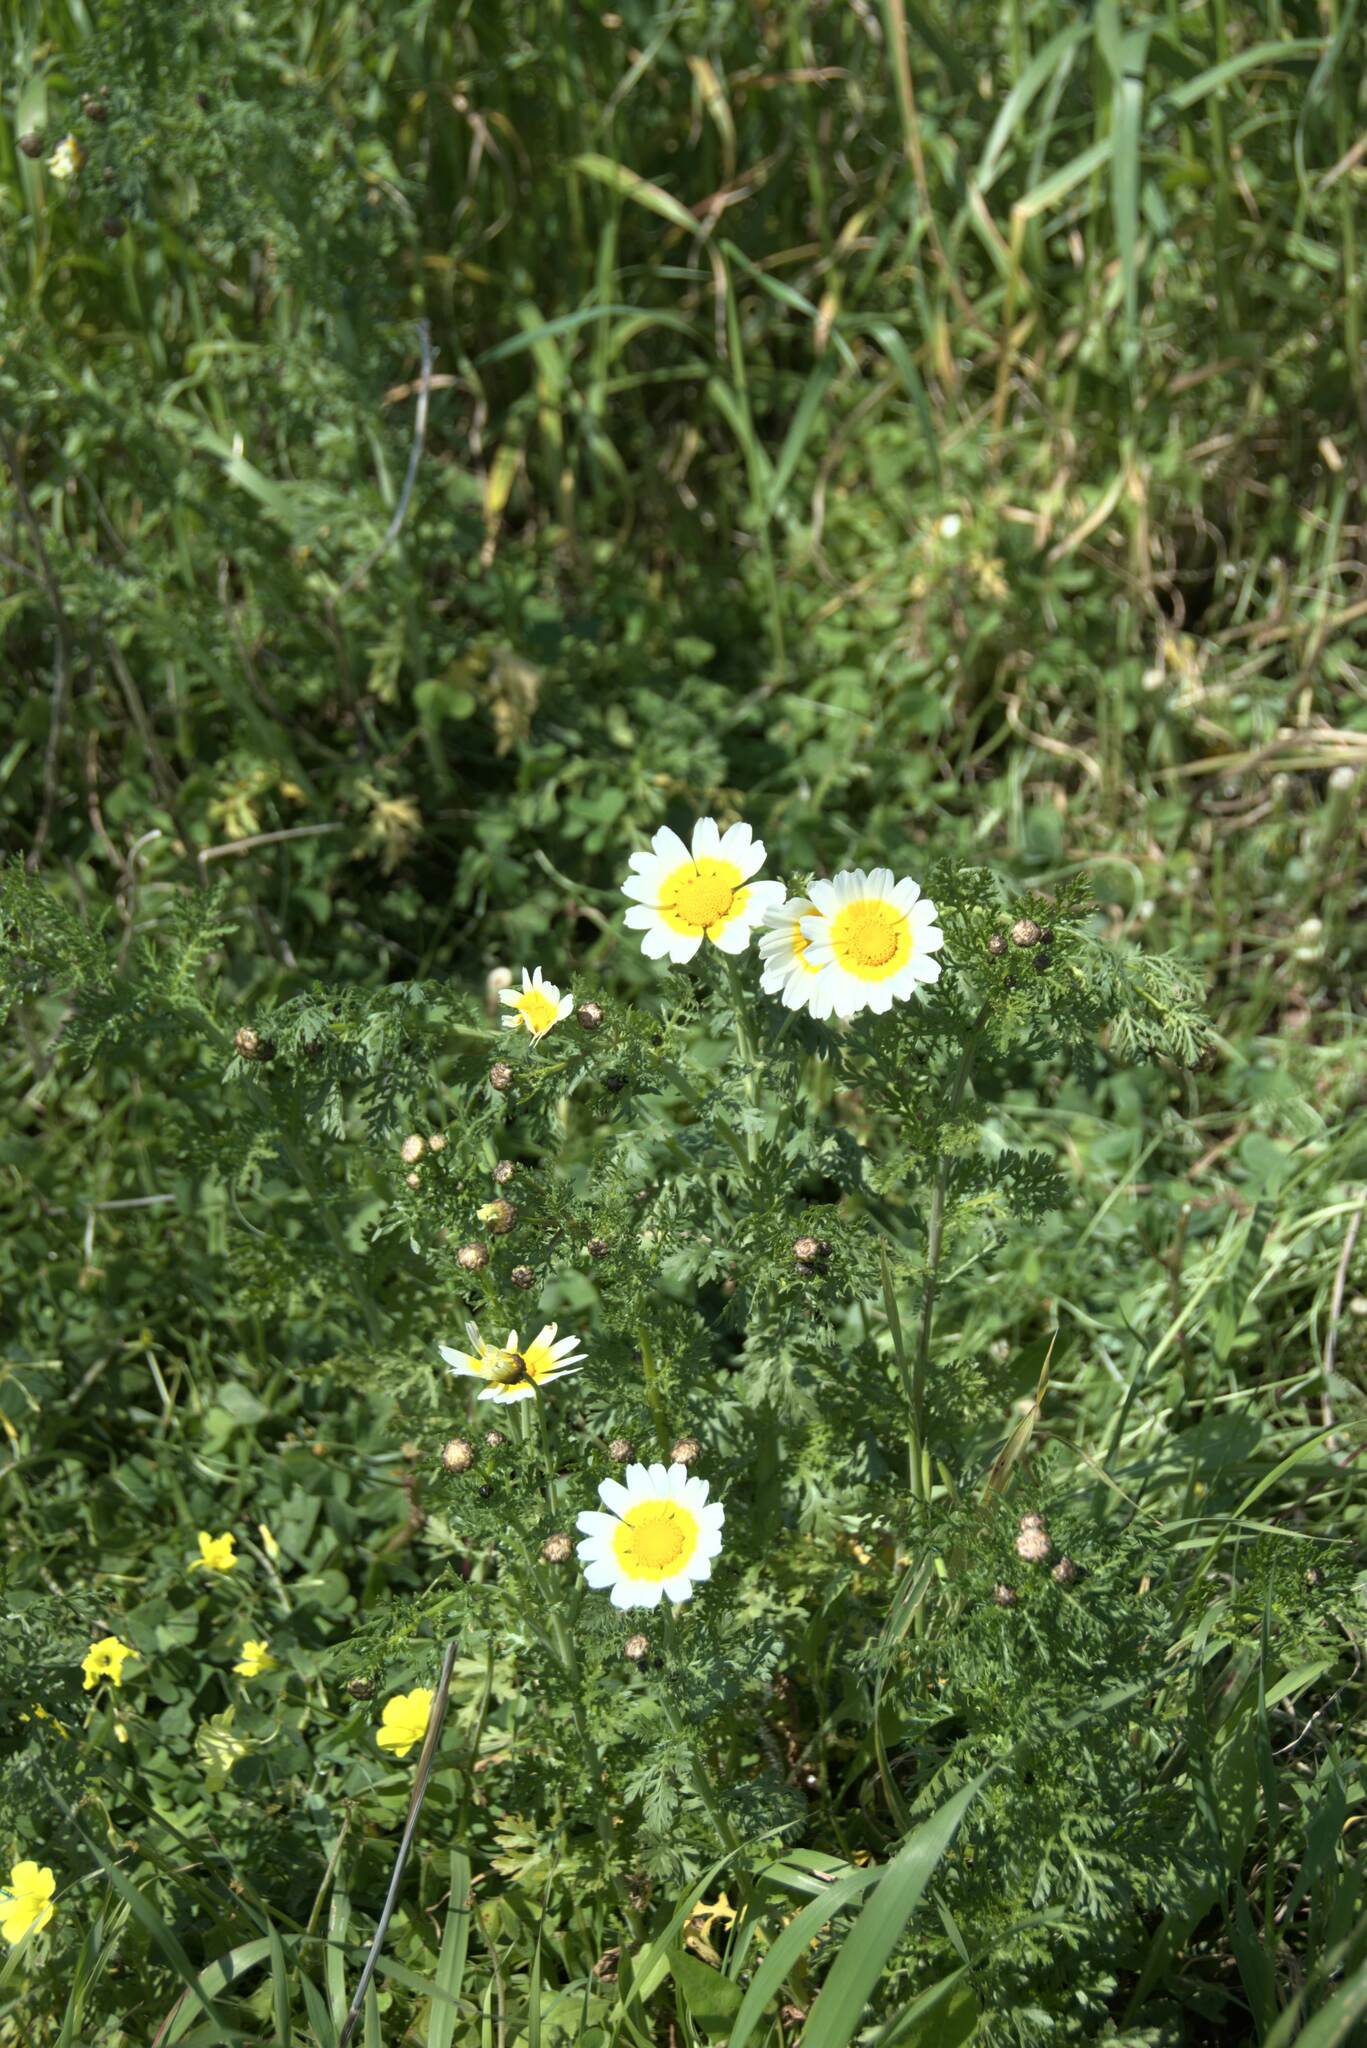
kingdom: Plantae
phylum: Tracheophyta
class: Magnoliopsida
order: Asterales
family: Asteraceae
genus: Glebionis
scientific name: Glebionis coronaria
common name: Crowndaisy
